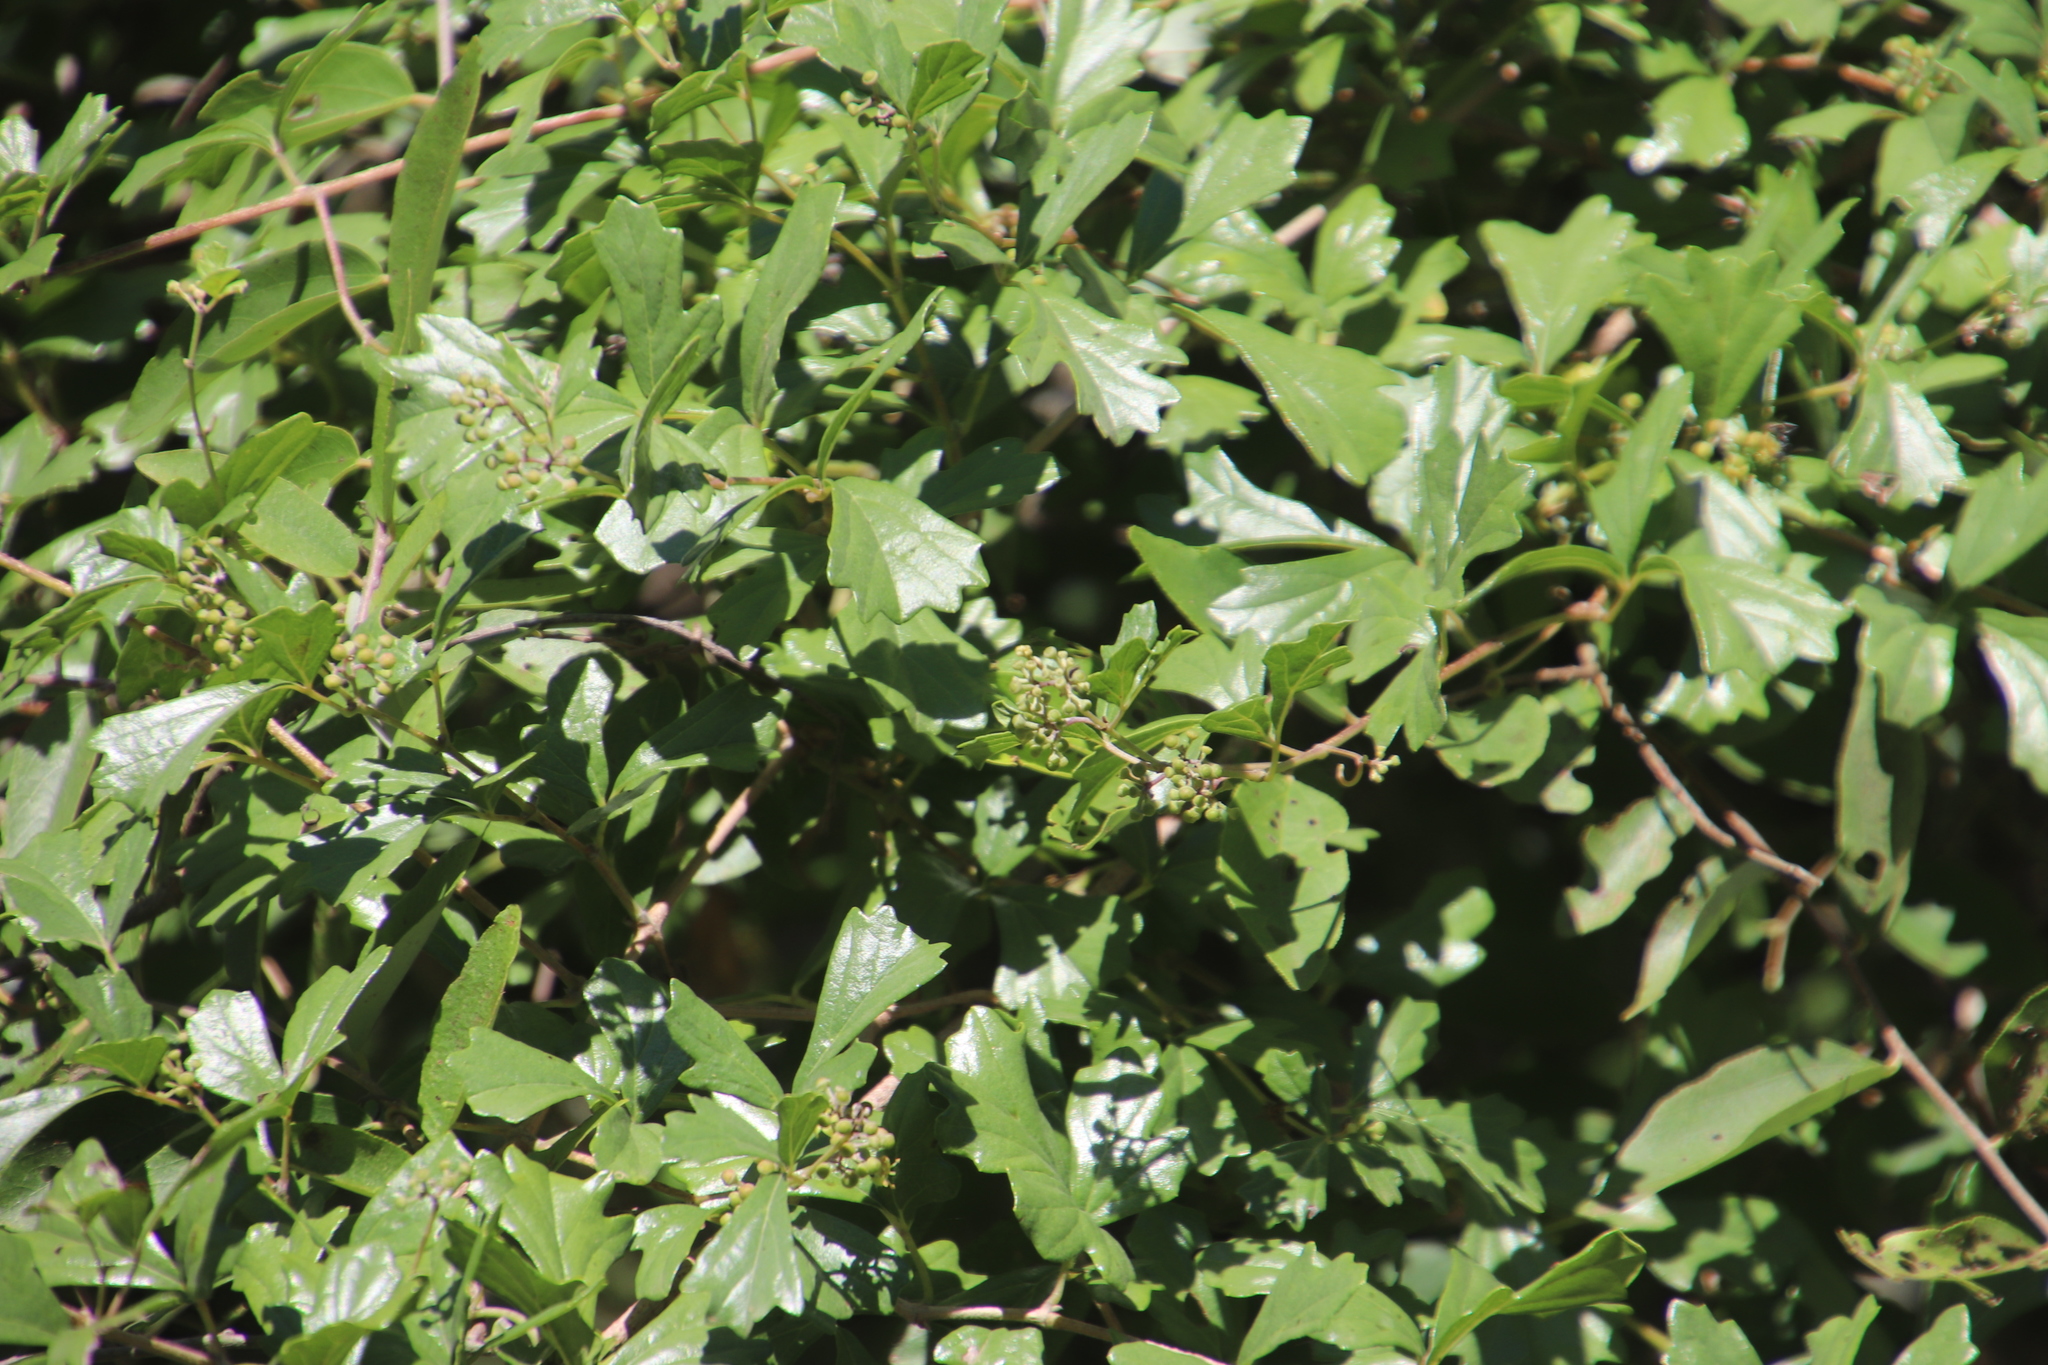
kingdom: Plantae
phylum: Tracheophyta
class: Magnoliopsida
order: Vitales
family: Vitaceae
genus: Rhoicissus
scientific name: Rhoicissus tridentata
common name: Common forest grape
